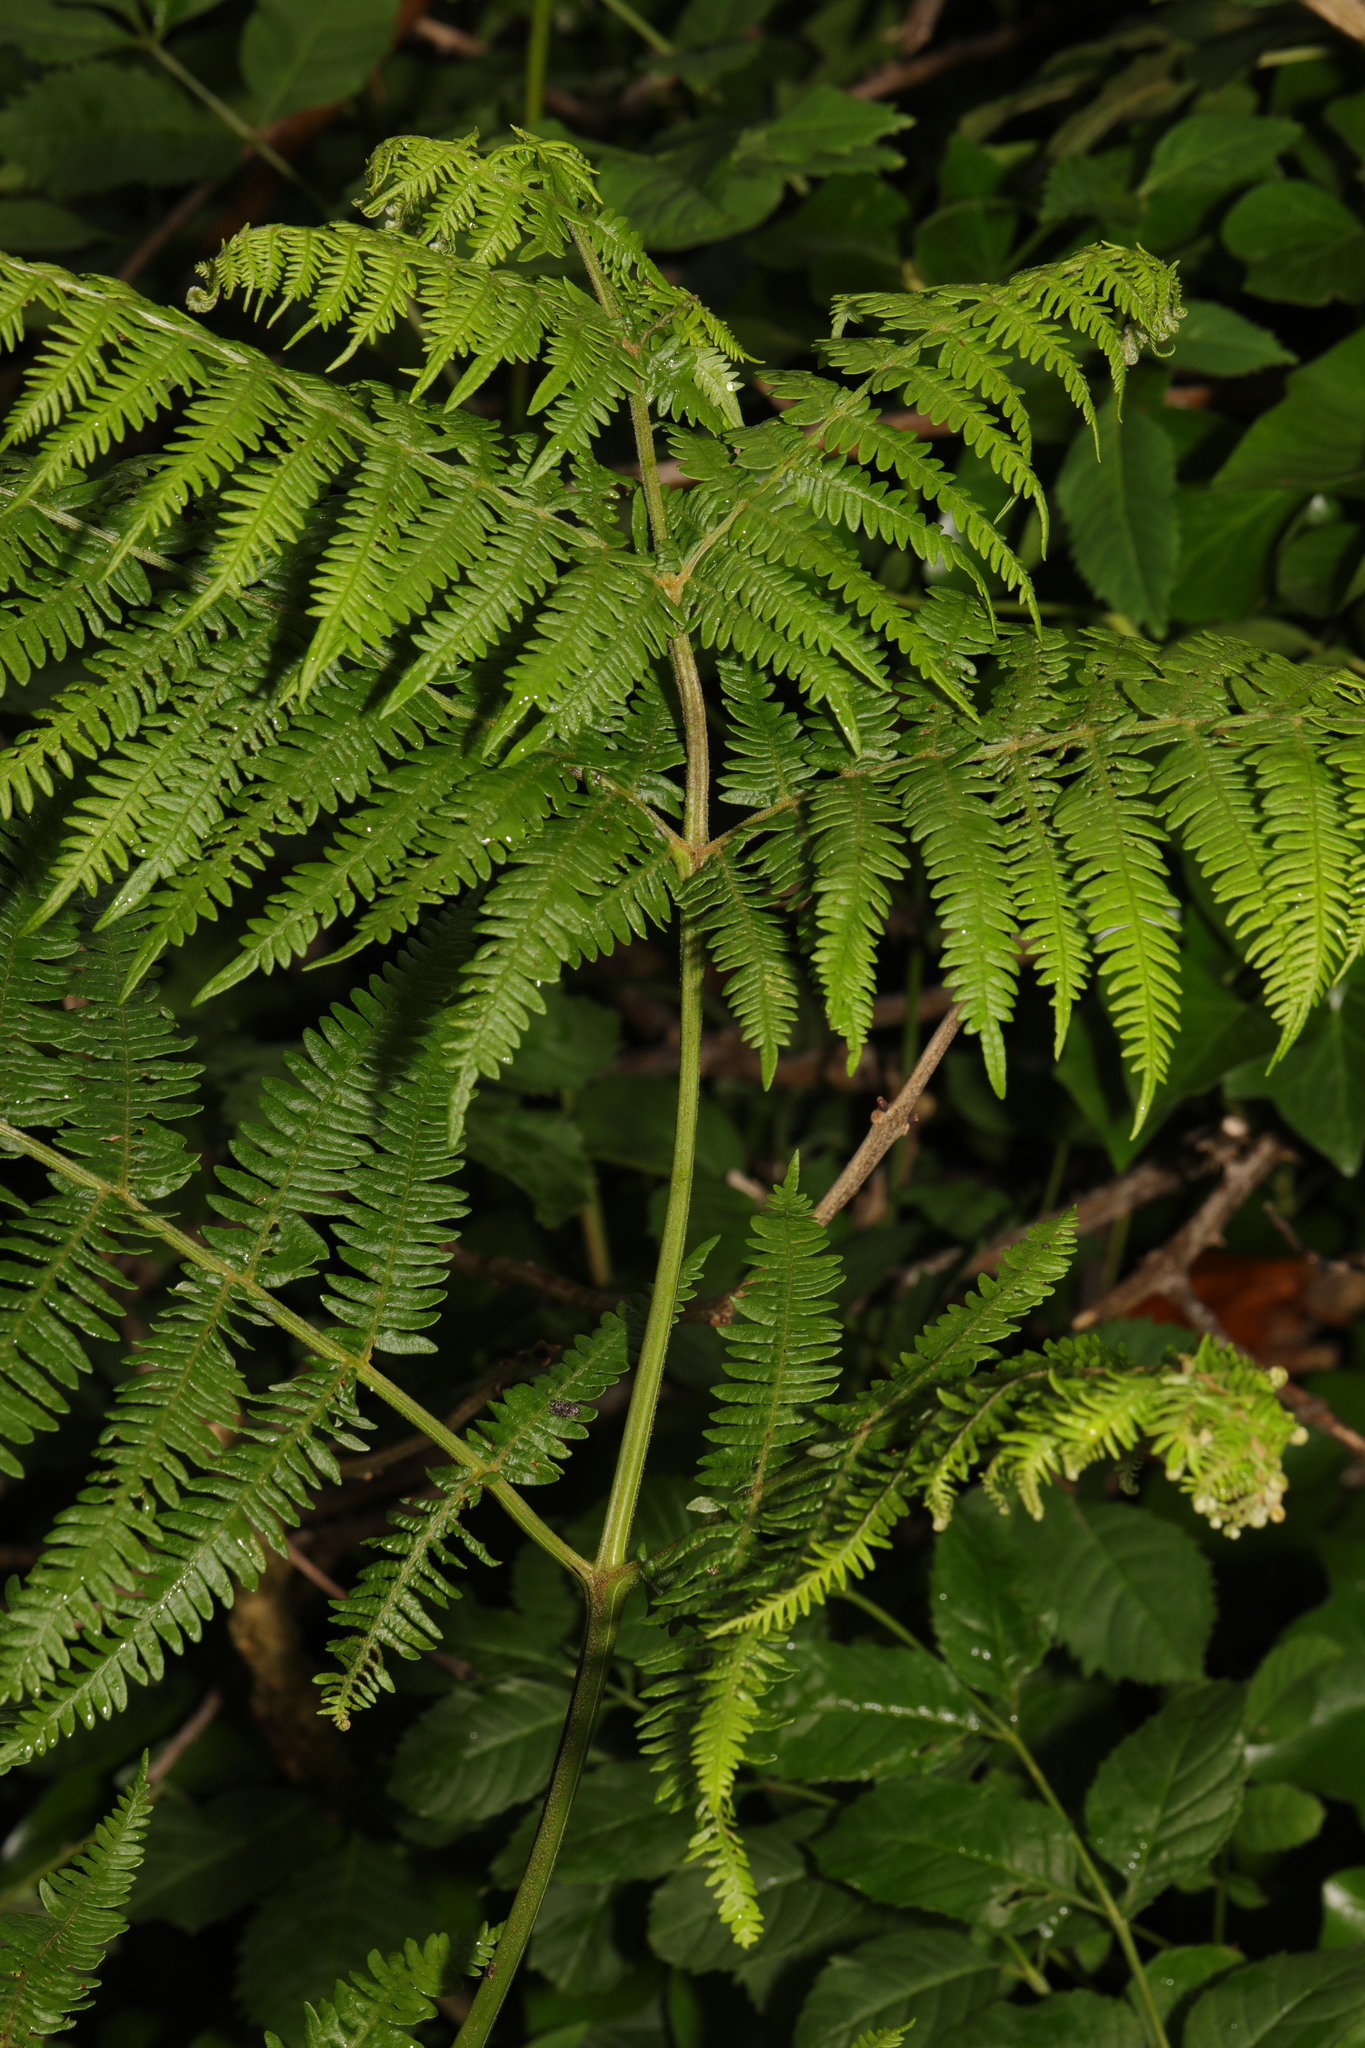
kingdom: Plantae
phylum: Tracheophyta
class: Polypodiopsida
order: Polypodiales
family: Dennstaedtiaceae
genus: Pteridium
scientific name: Pteridium aquilinum
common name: Bracken
